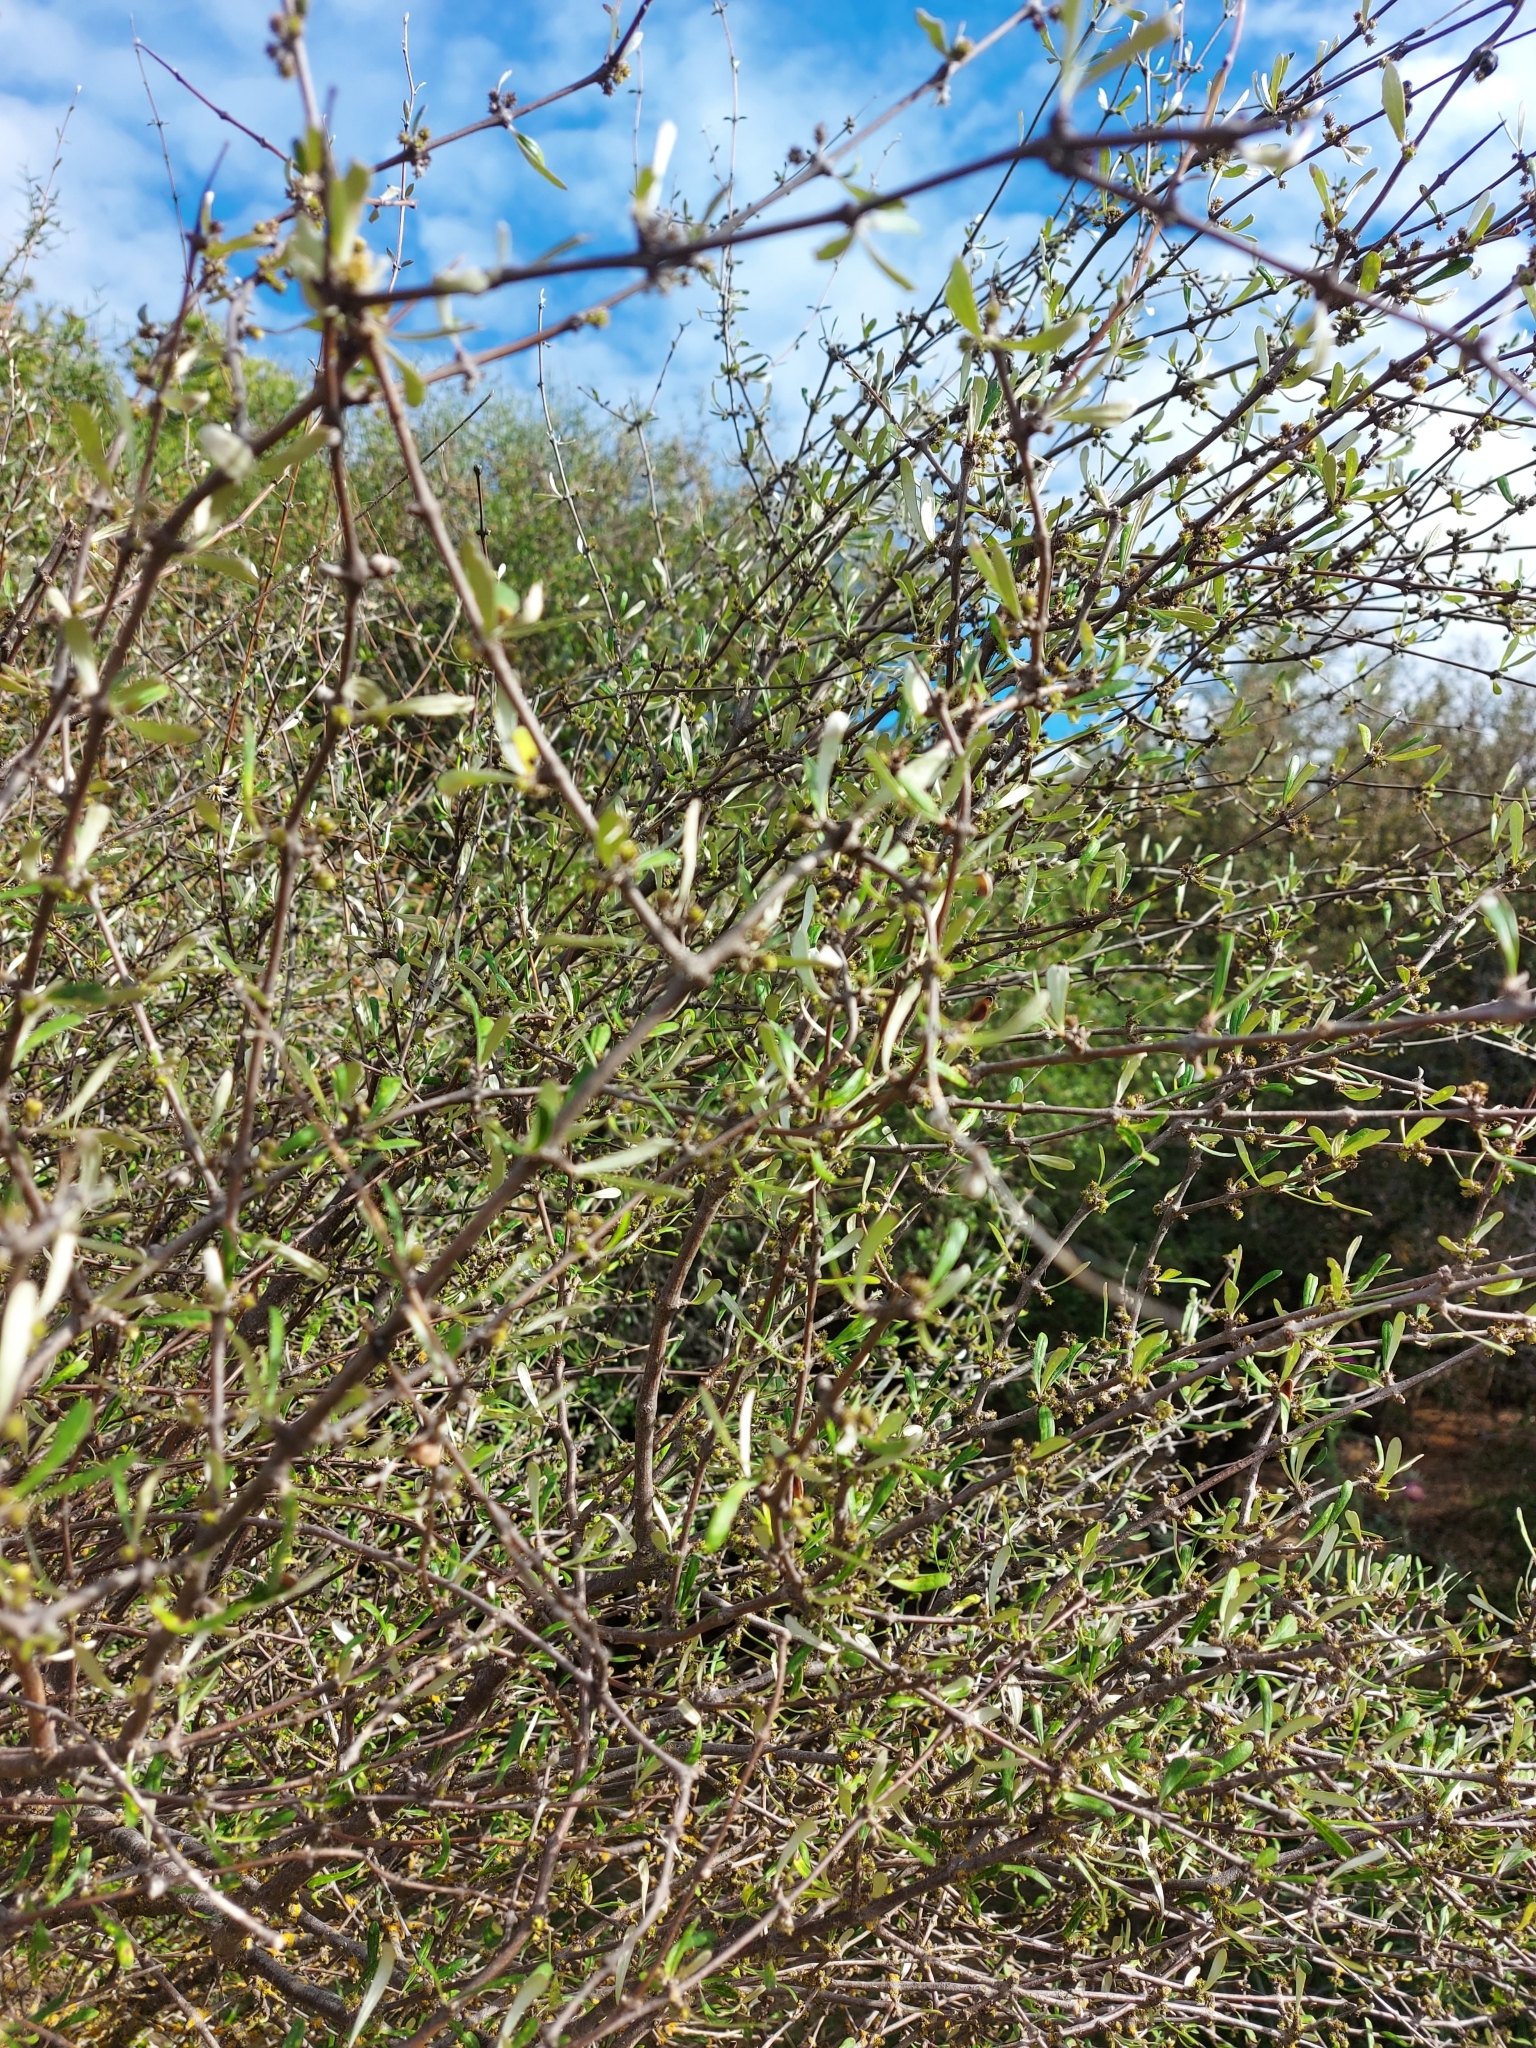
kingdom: Plantae
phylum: Tracheophyta
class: Magnoliopsida
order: Asterales
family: Asteraceae
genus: Olearia
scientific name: Olearia odorata
